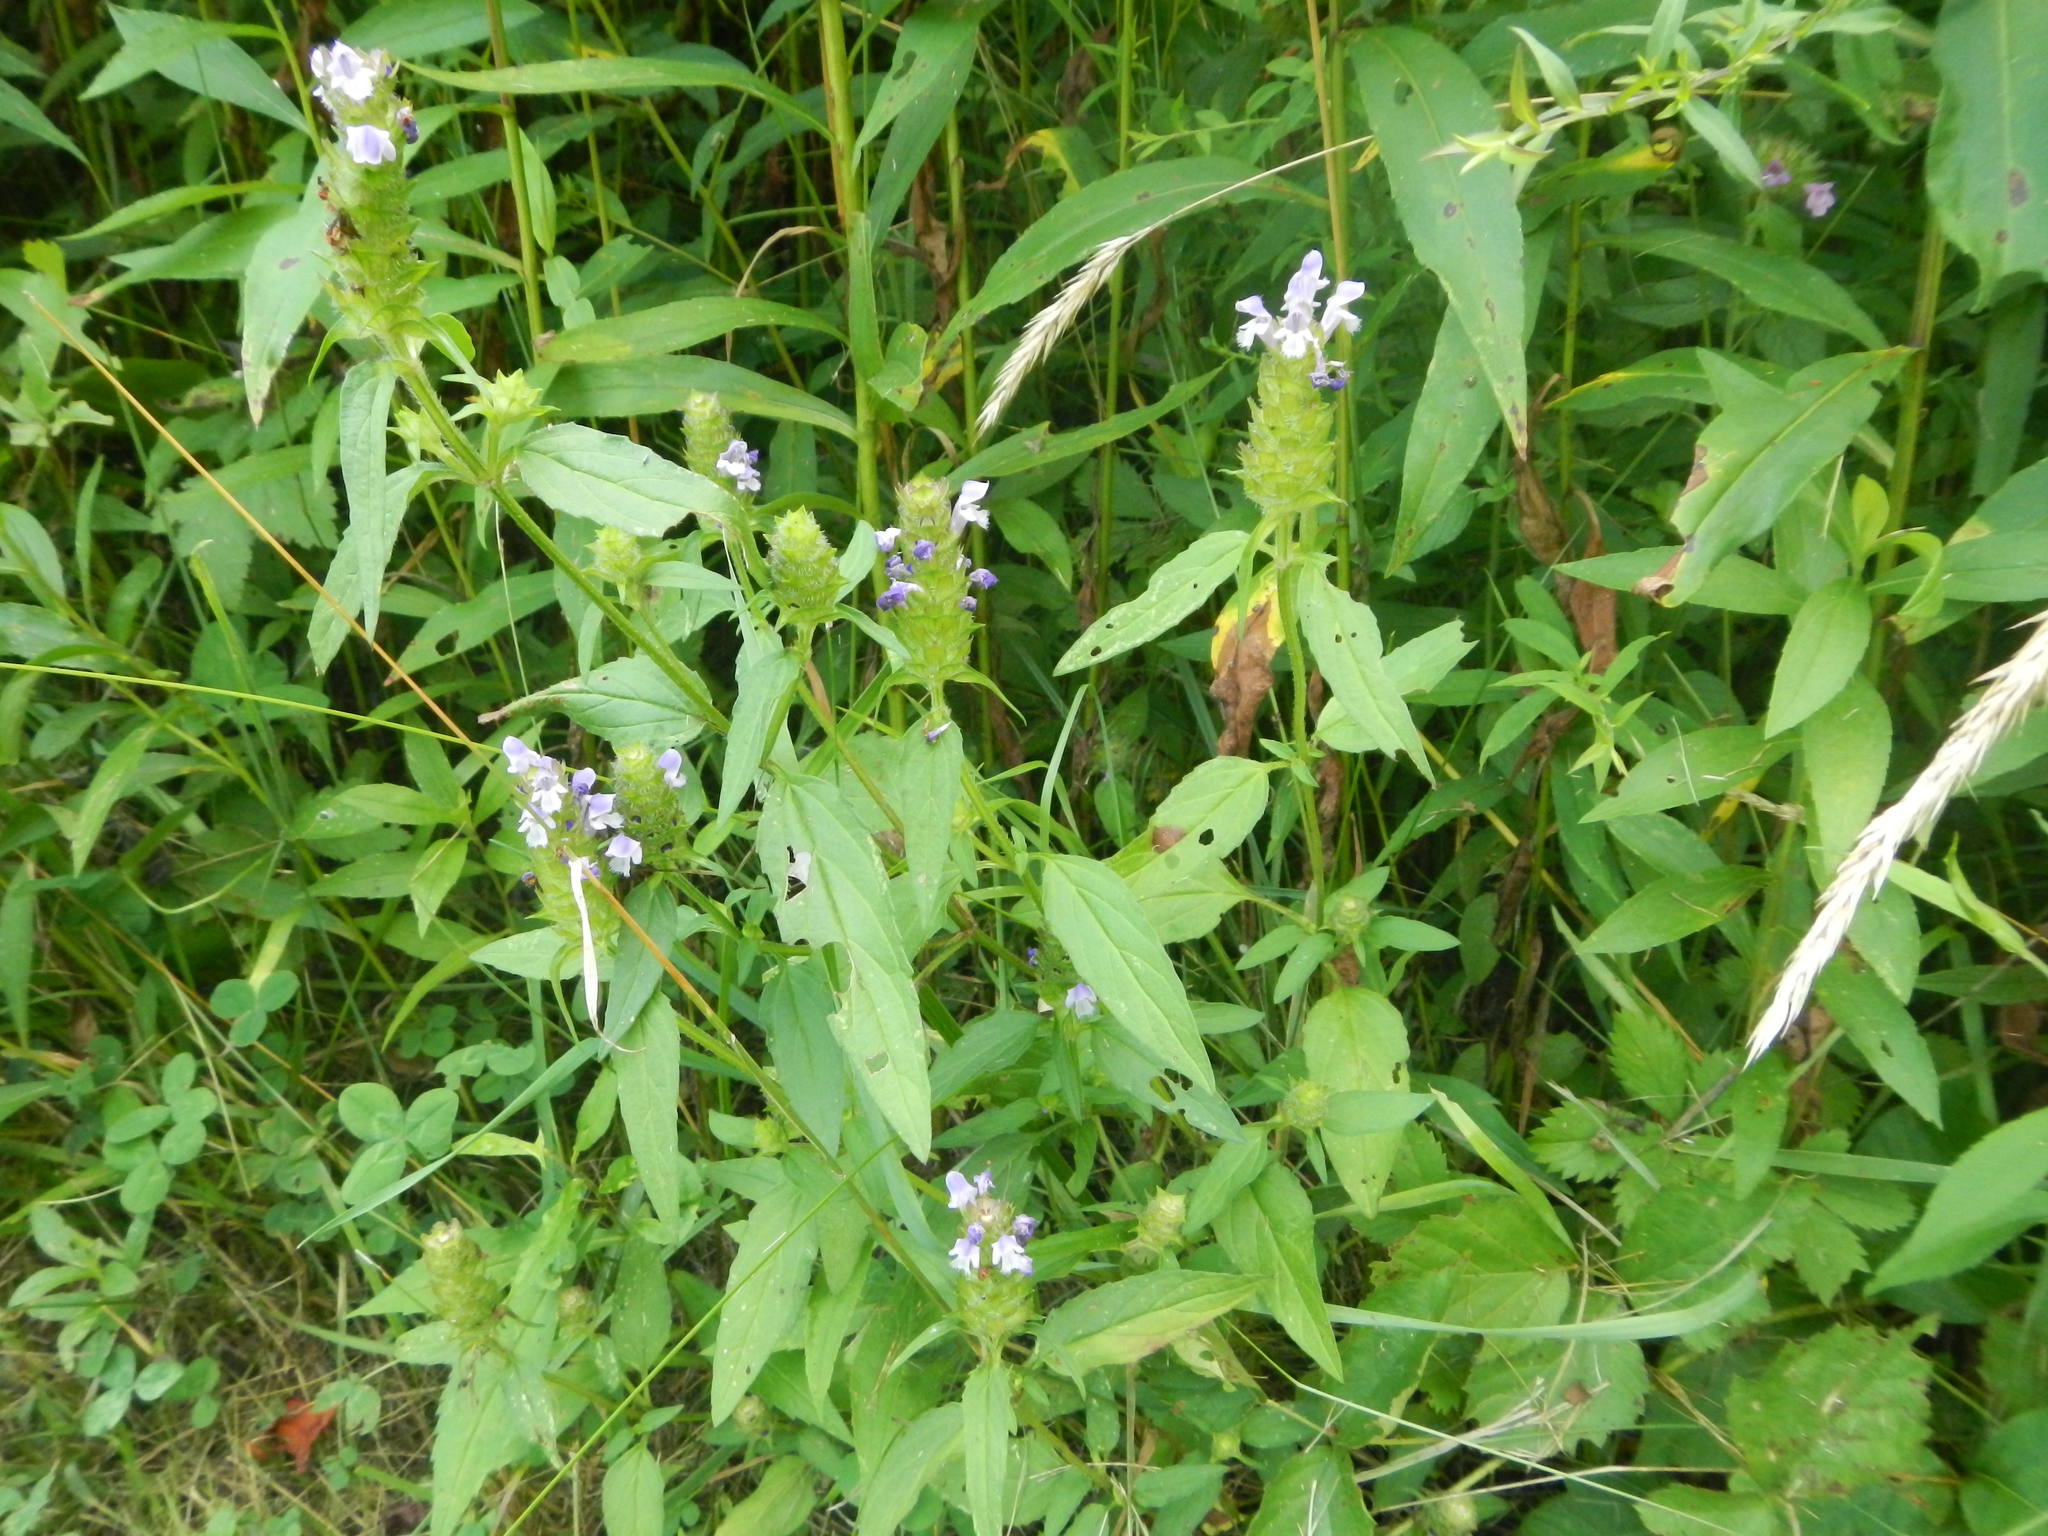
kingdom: Plantae
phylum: Tracheophyta
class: Magnoliopsida
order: Lamiales
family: Lamiaceae
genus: Prunella
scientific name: Prunella vulgaris
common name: Heal-all
